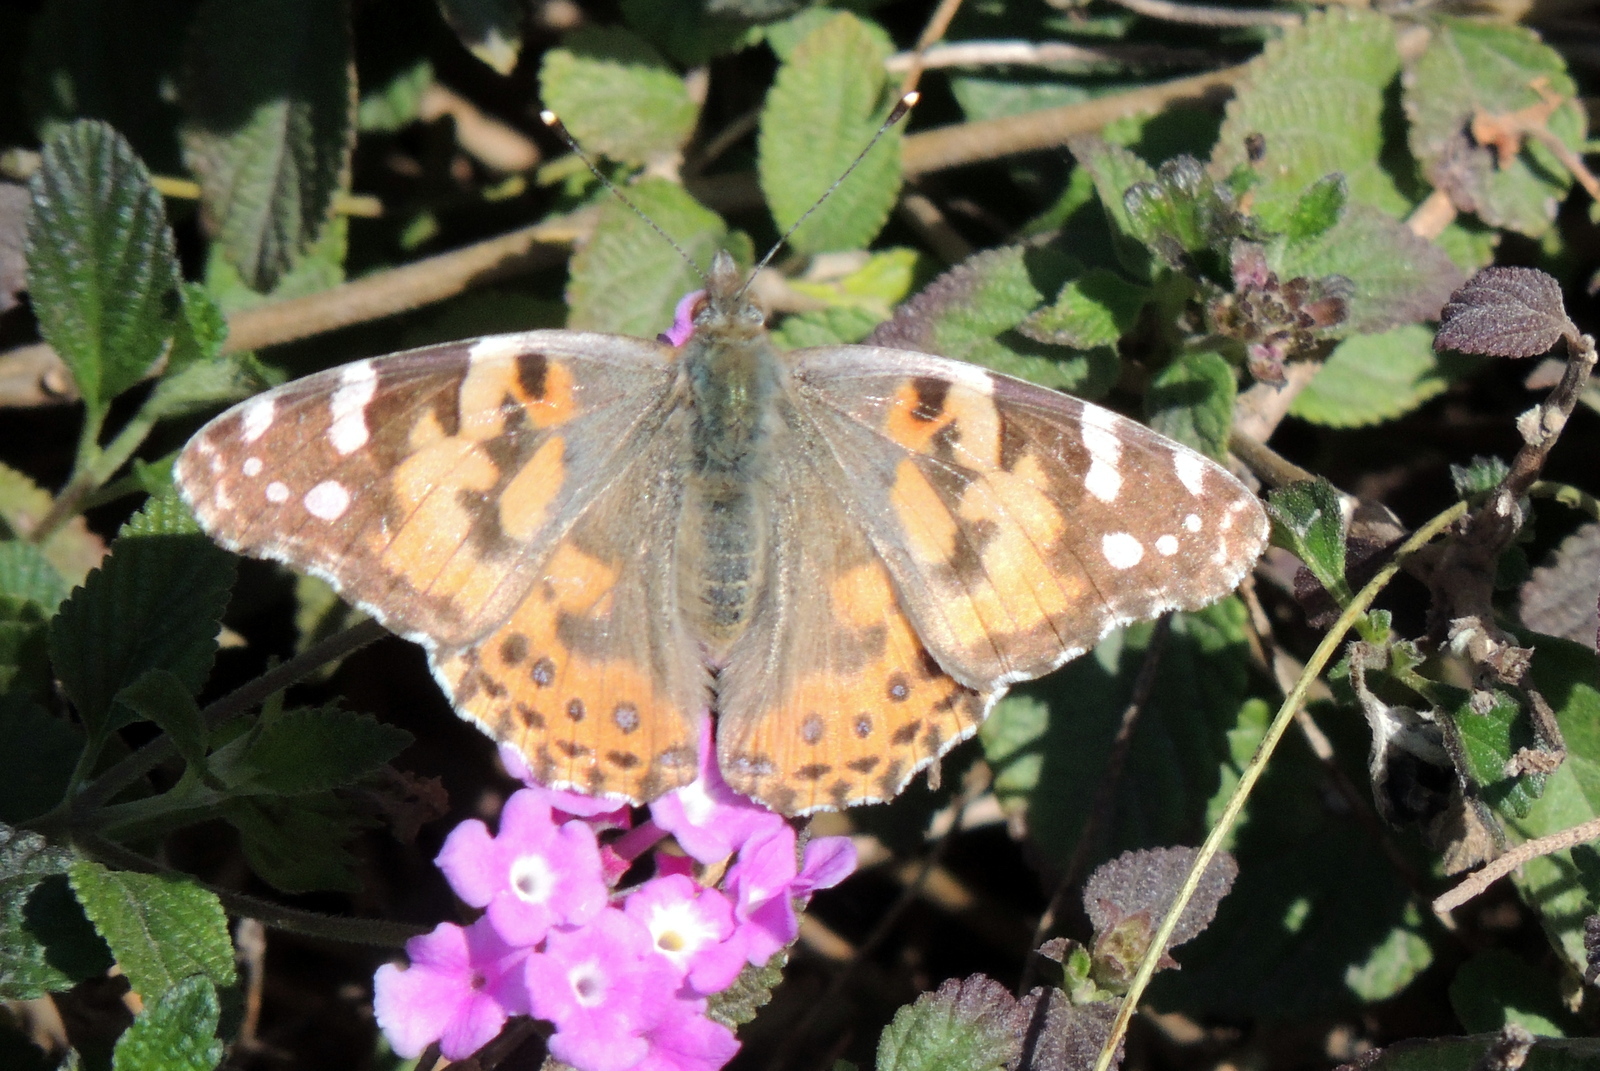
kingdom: Animalia
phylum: Arthropoda
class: Insecta
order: Lepidoptera
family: Nymphalidae
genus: Vanessa
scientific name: Vanessa cardui
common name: Painted lady
